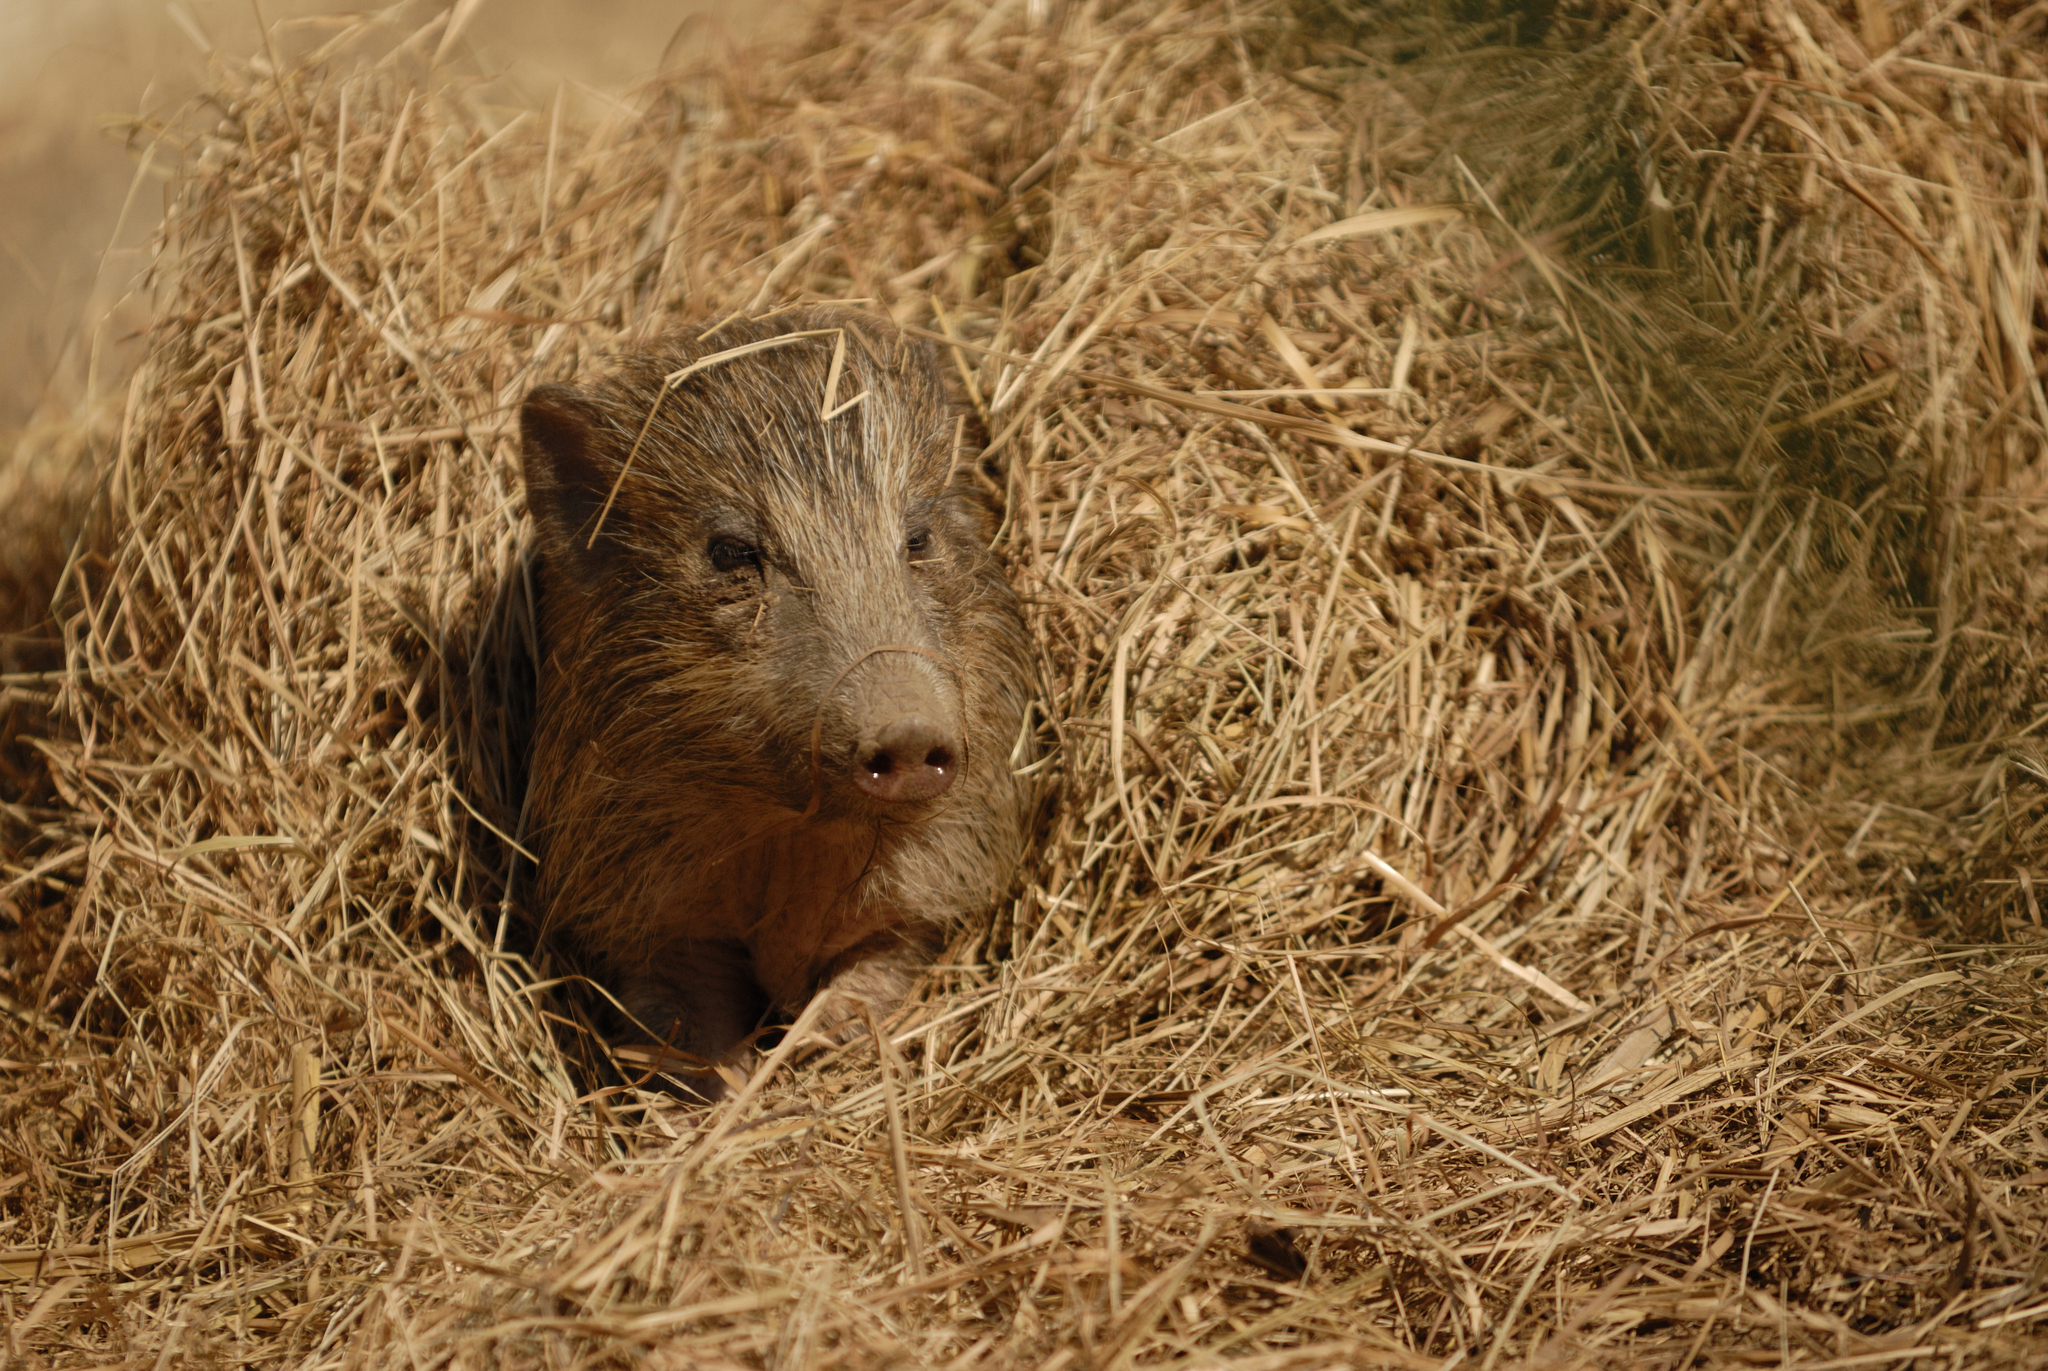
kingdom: Animalia
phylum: Chordata
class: Mammalia
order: Artiodactyla
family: Suidae
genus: Sus
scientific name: Sus salvanius
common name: Pygmy hog
